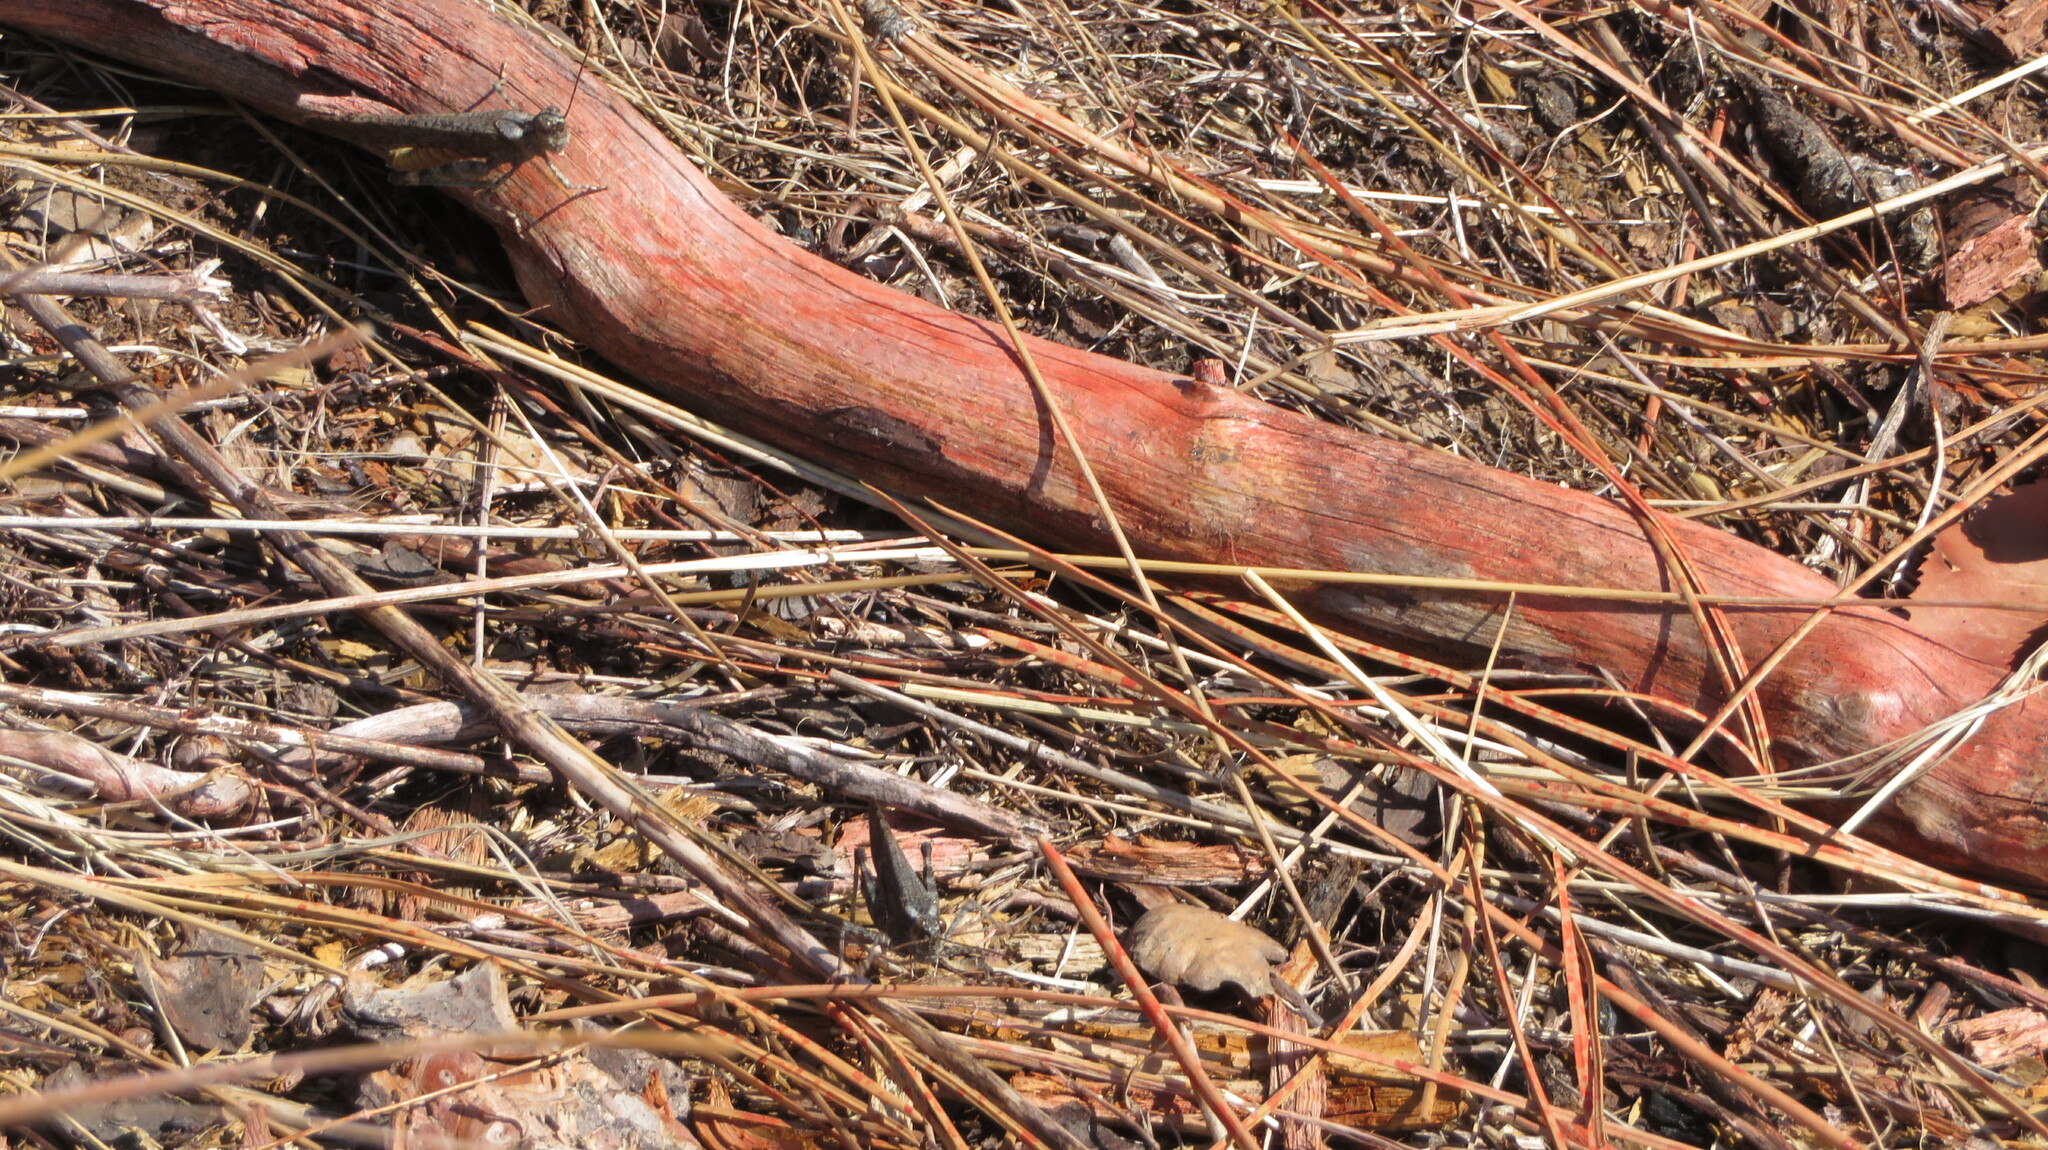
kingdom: Animalia
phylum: Arthropoda
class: Insecta
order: Orthoptera
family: Acrididae
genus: Trimerotropis
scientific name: Trimerotropis verruculata
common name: Crackling forest grasshopper
